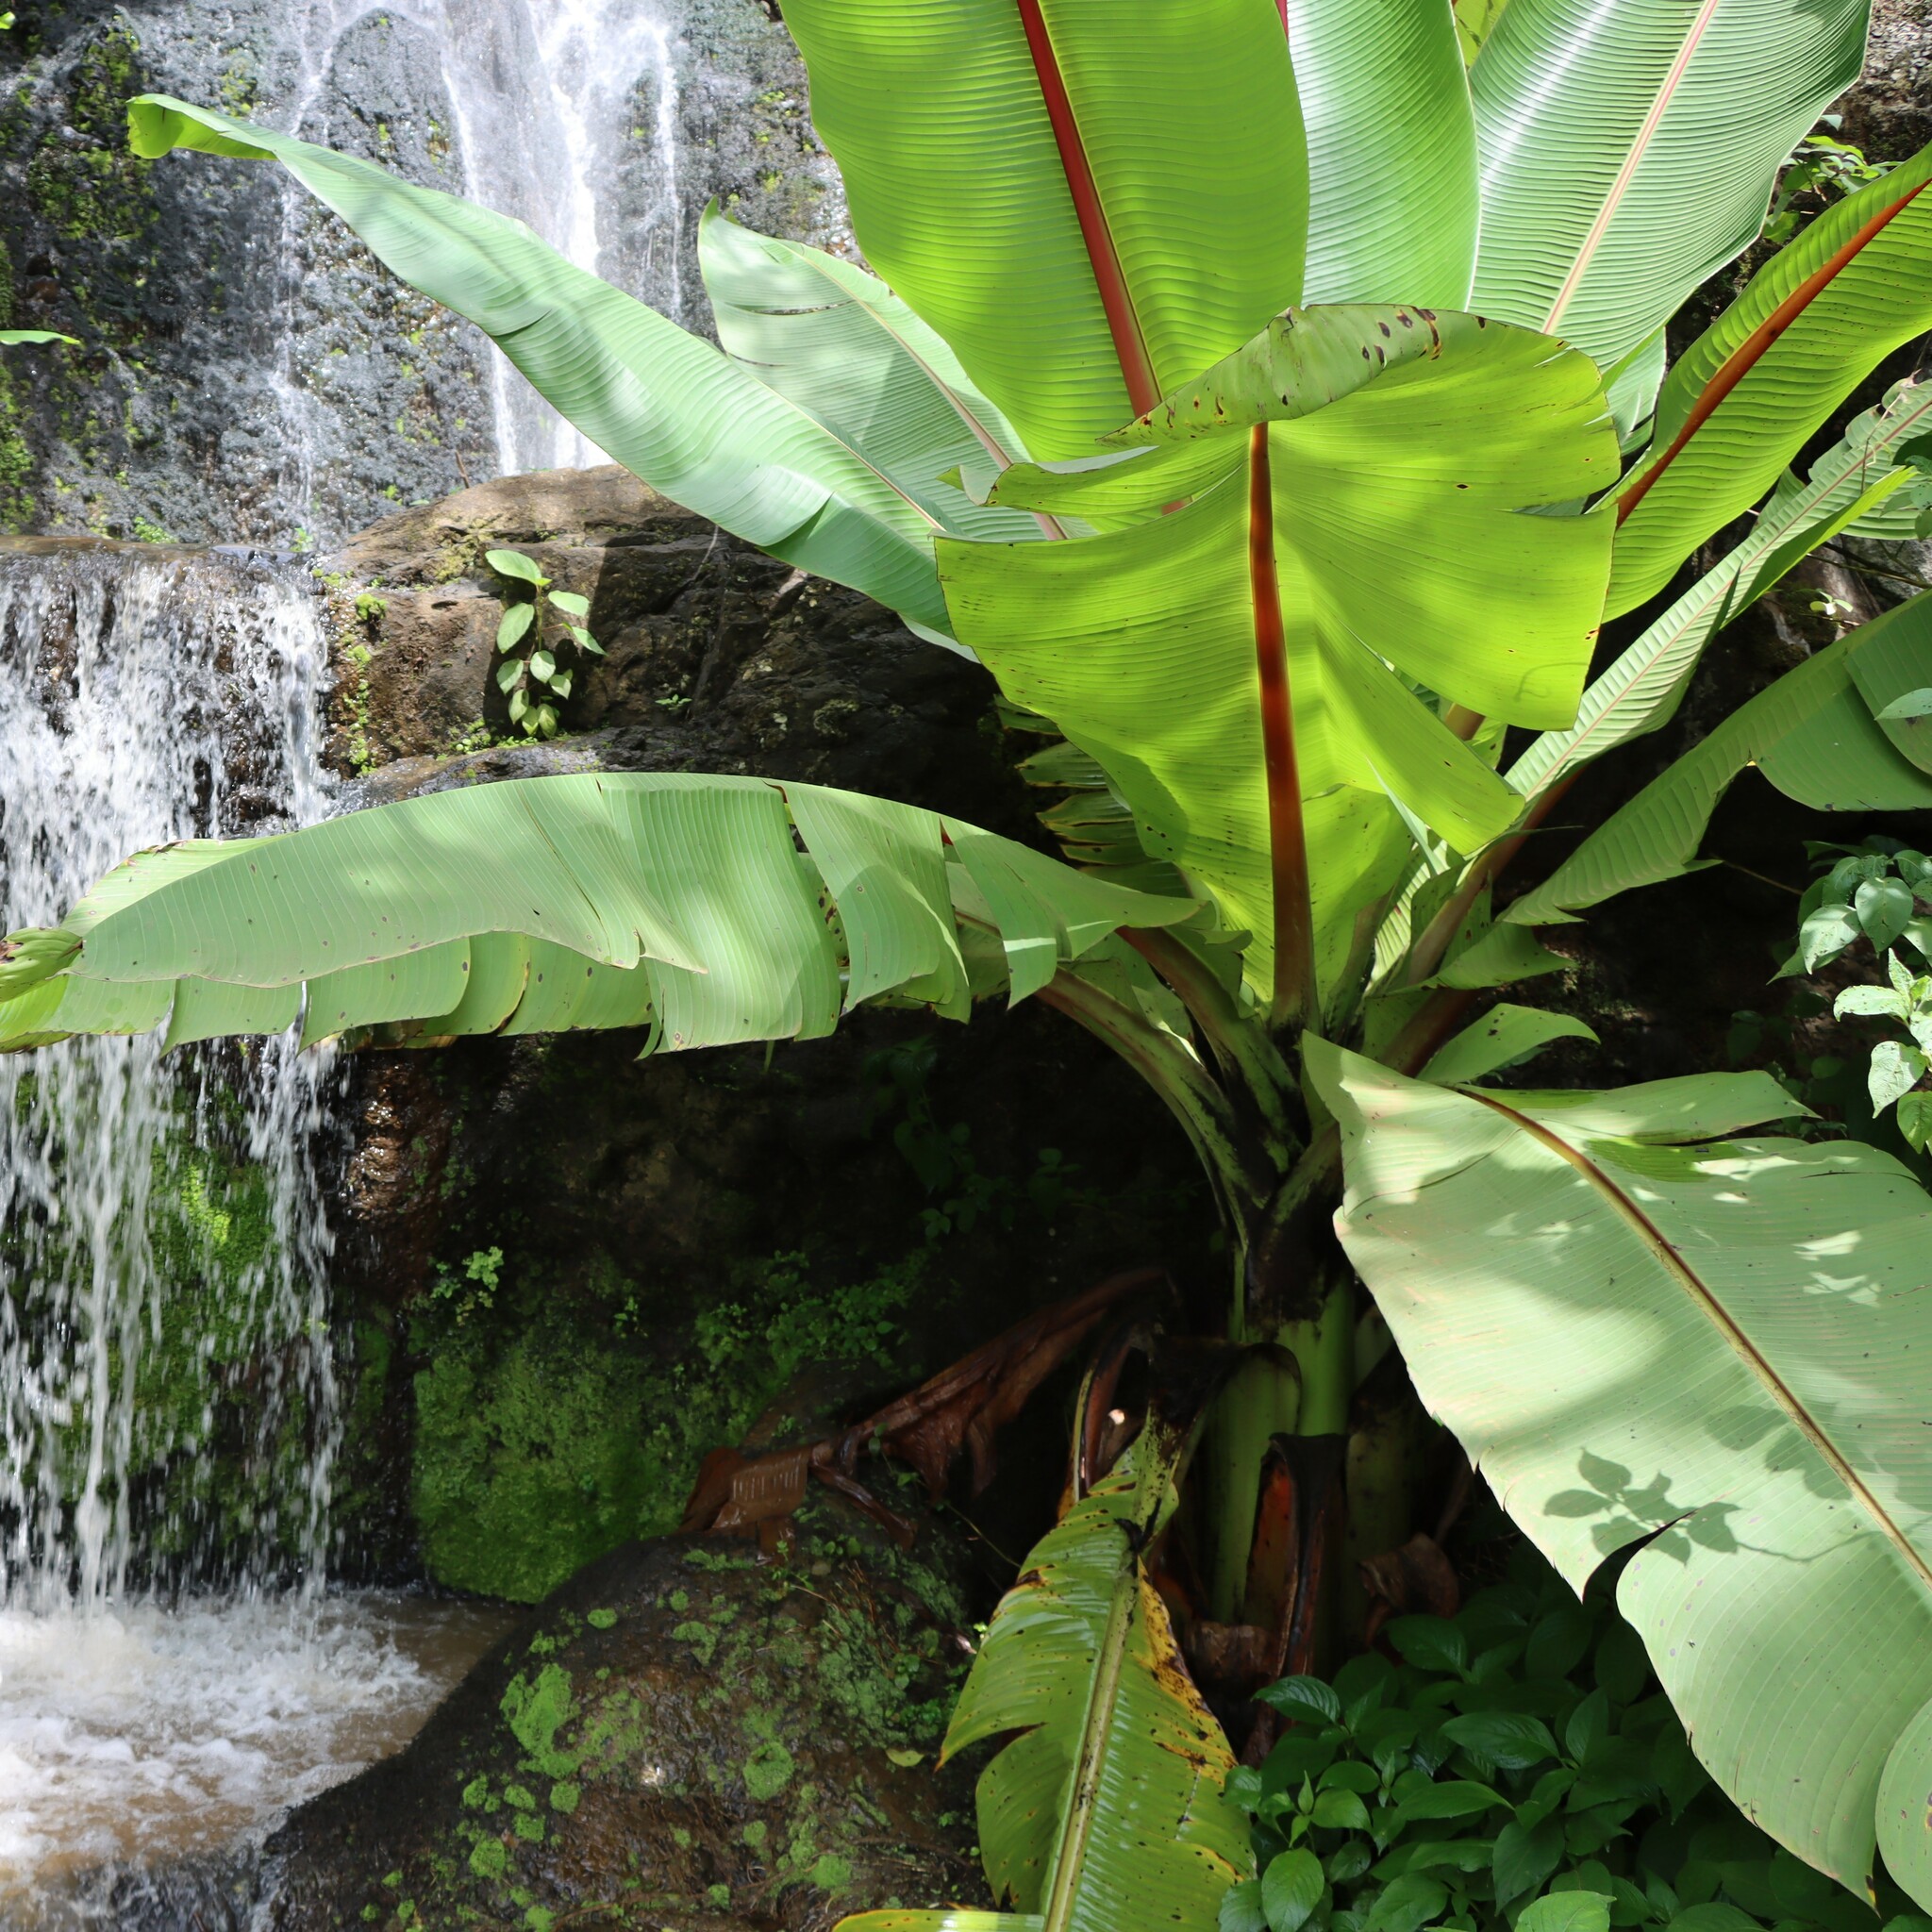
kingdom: Plantae
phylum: Tracheophyta
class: Liliopsida
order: Zingiberales
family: Musaceae
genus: Ensete
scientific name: Ensete ventricosum
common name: Abyssinian banana
